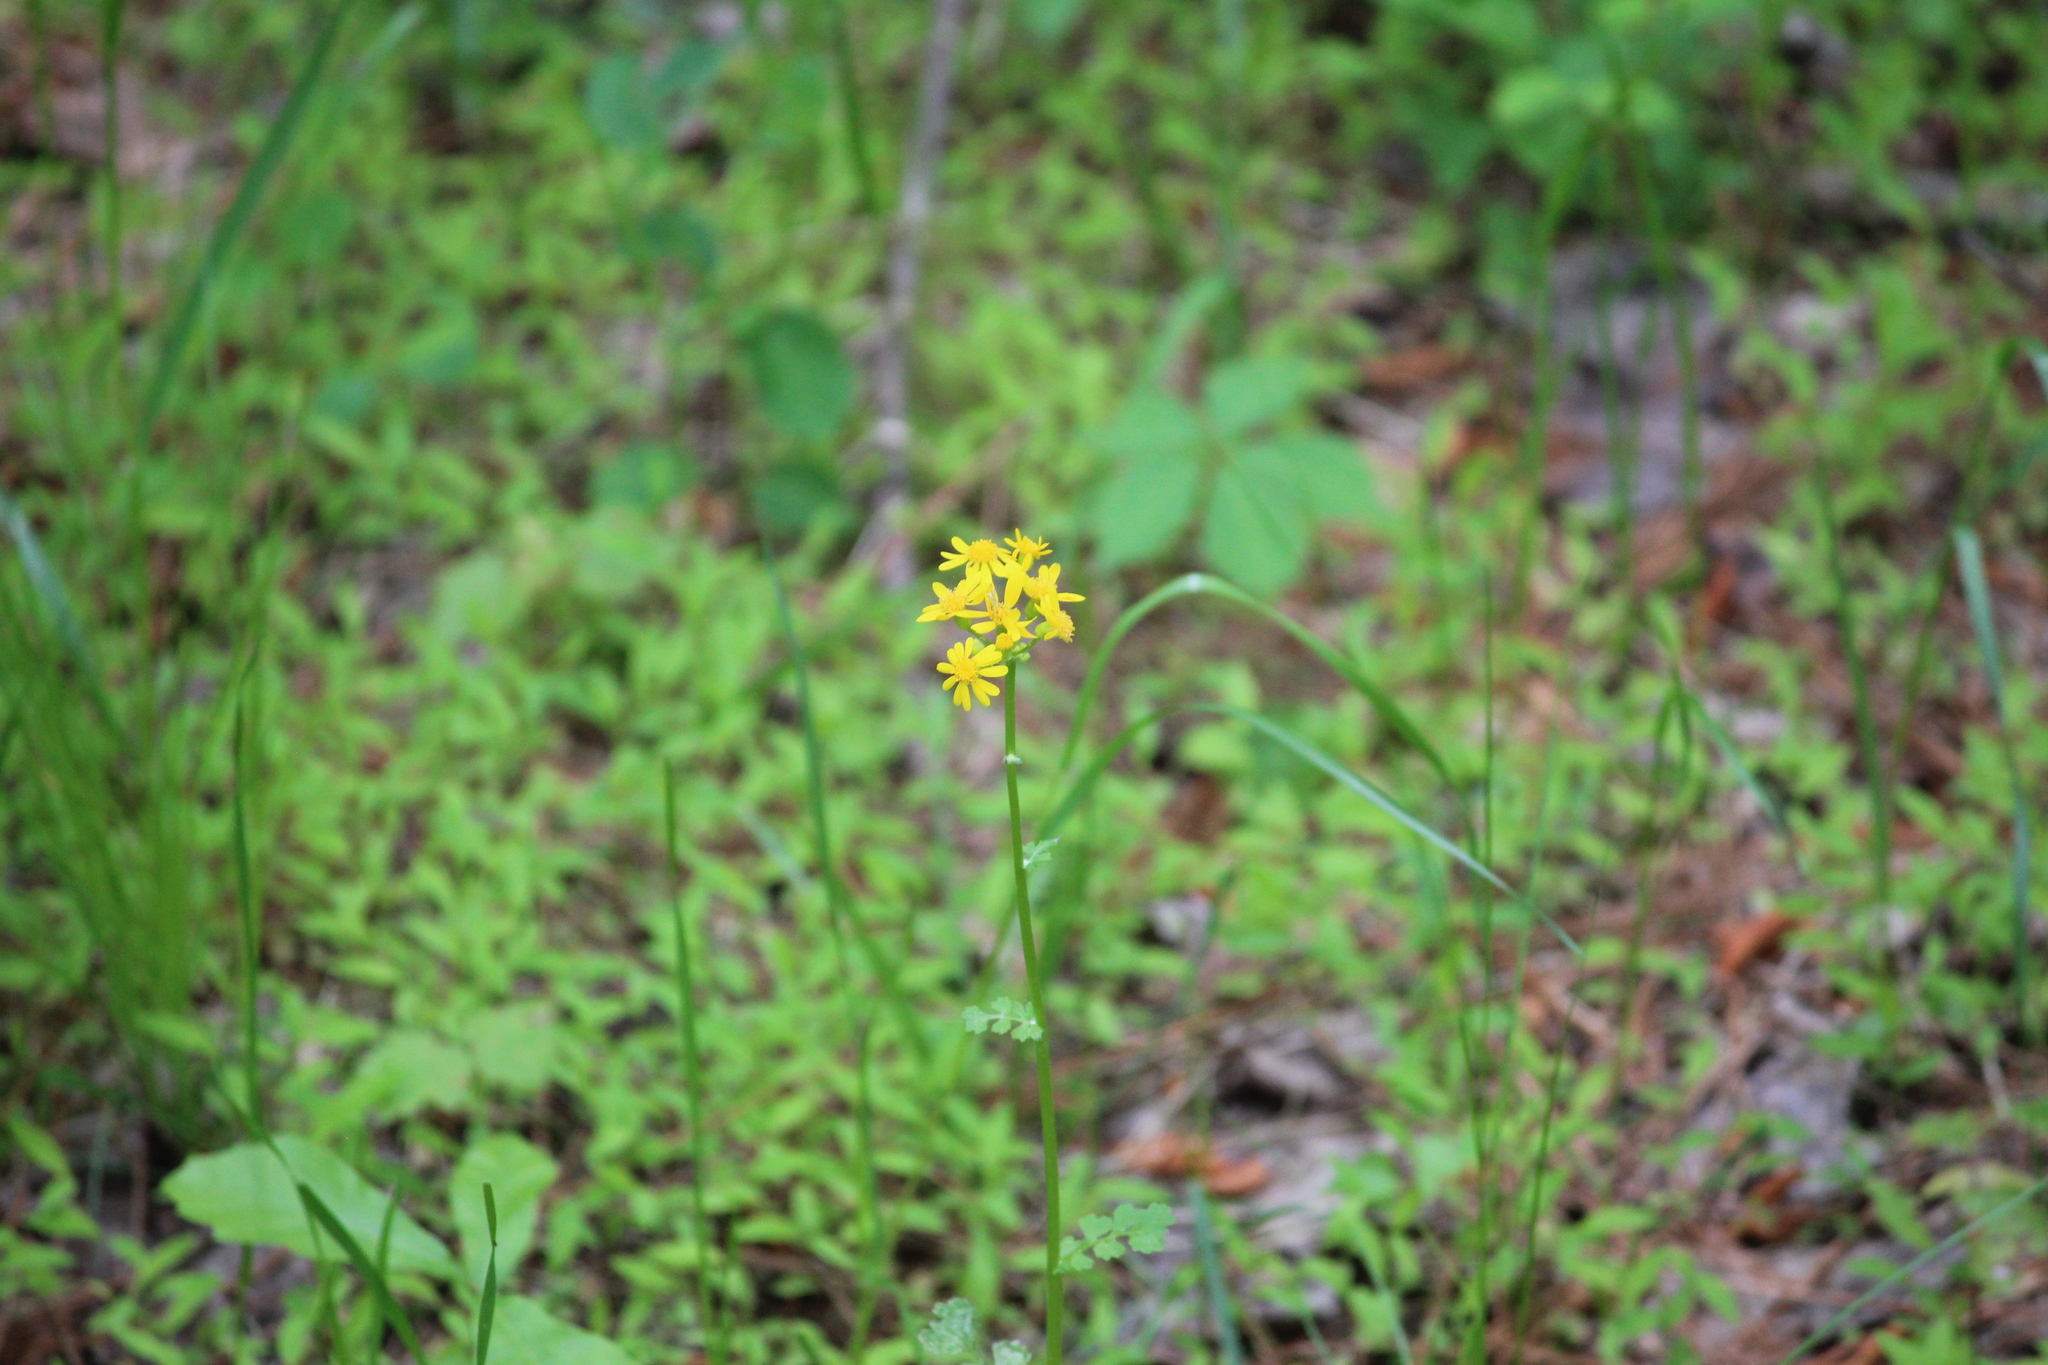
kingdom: Plantae
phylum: Tracheophyta
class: Magnoliopsida
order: Asterales
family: Asteraceae
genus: Packera
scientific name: Packera aurea
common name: Golden groundsel
